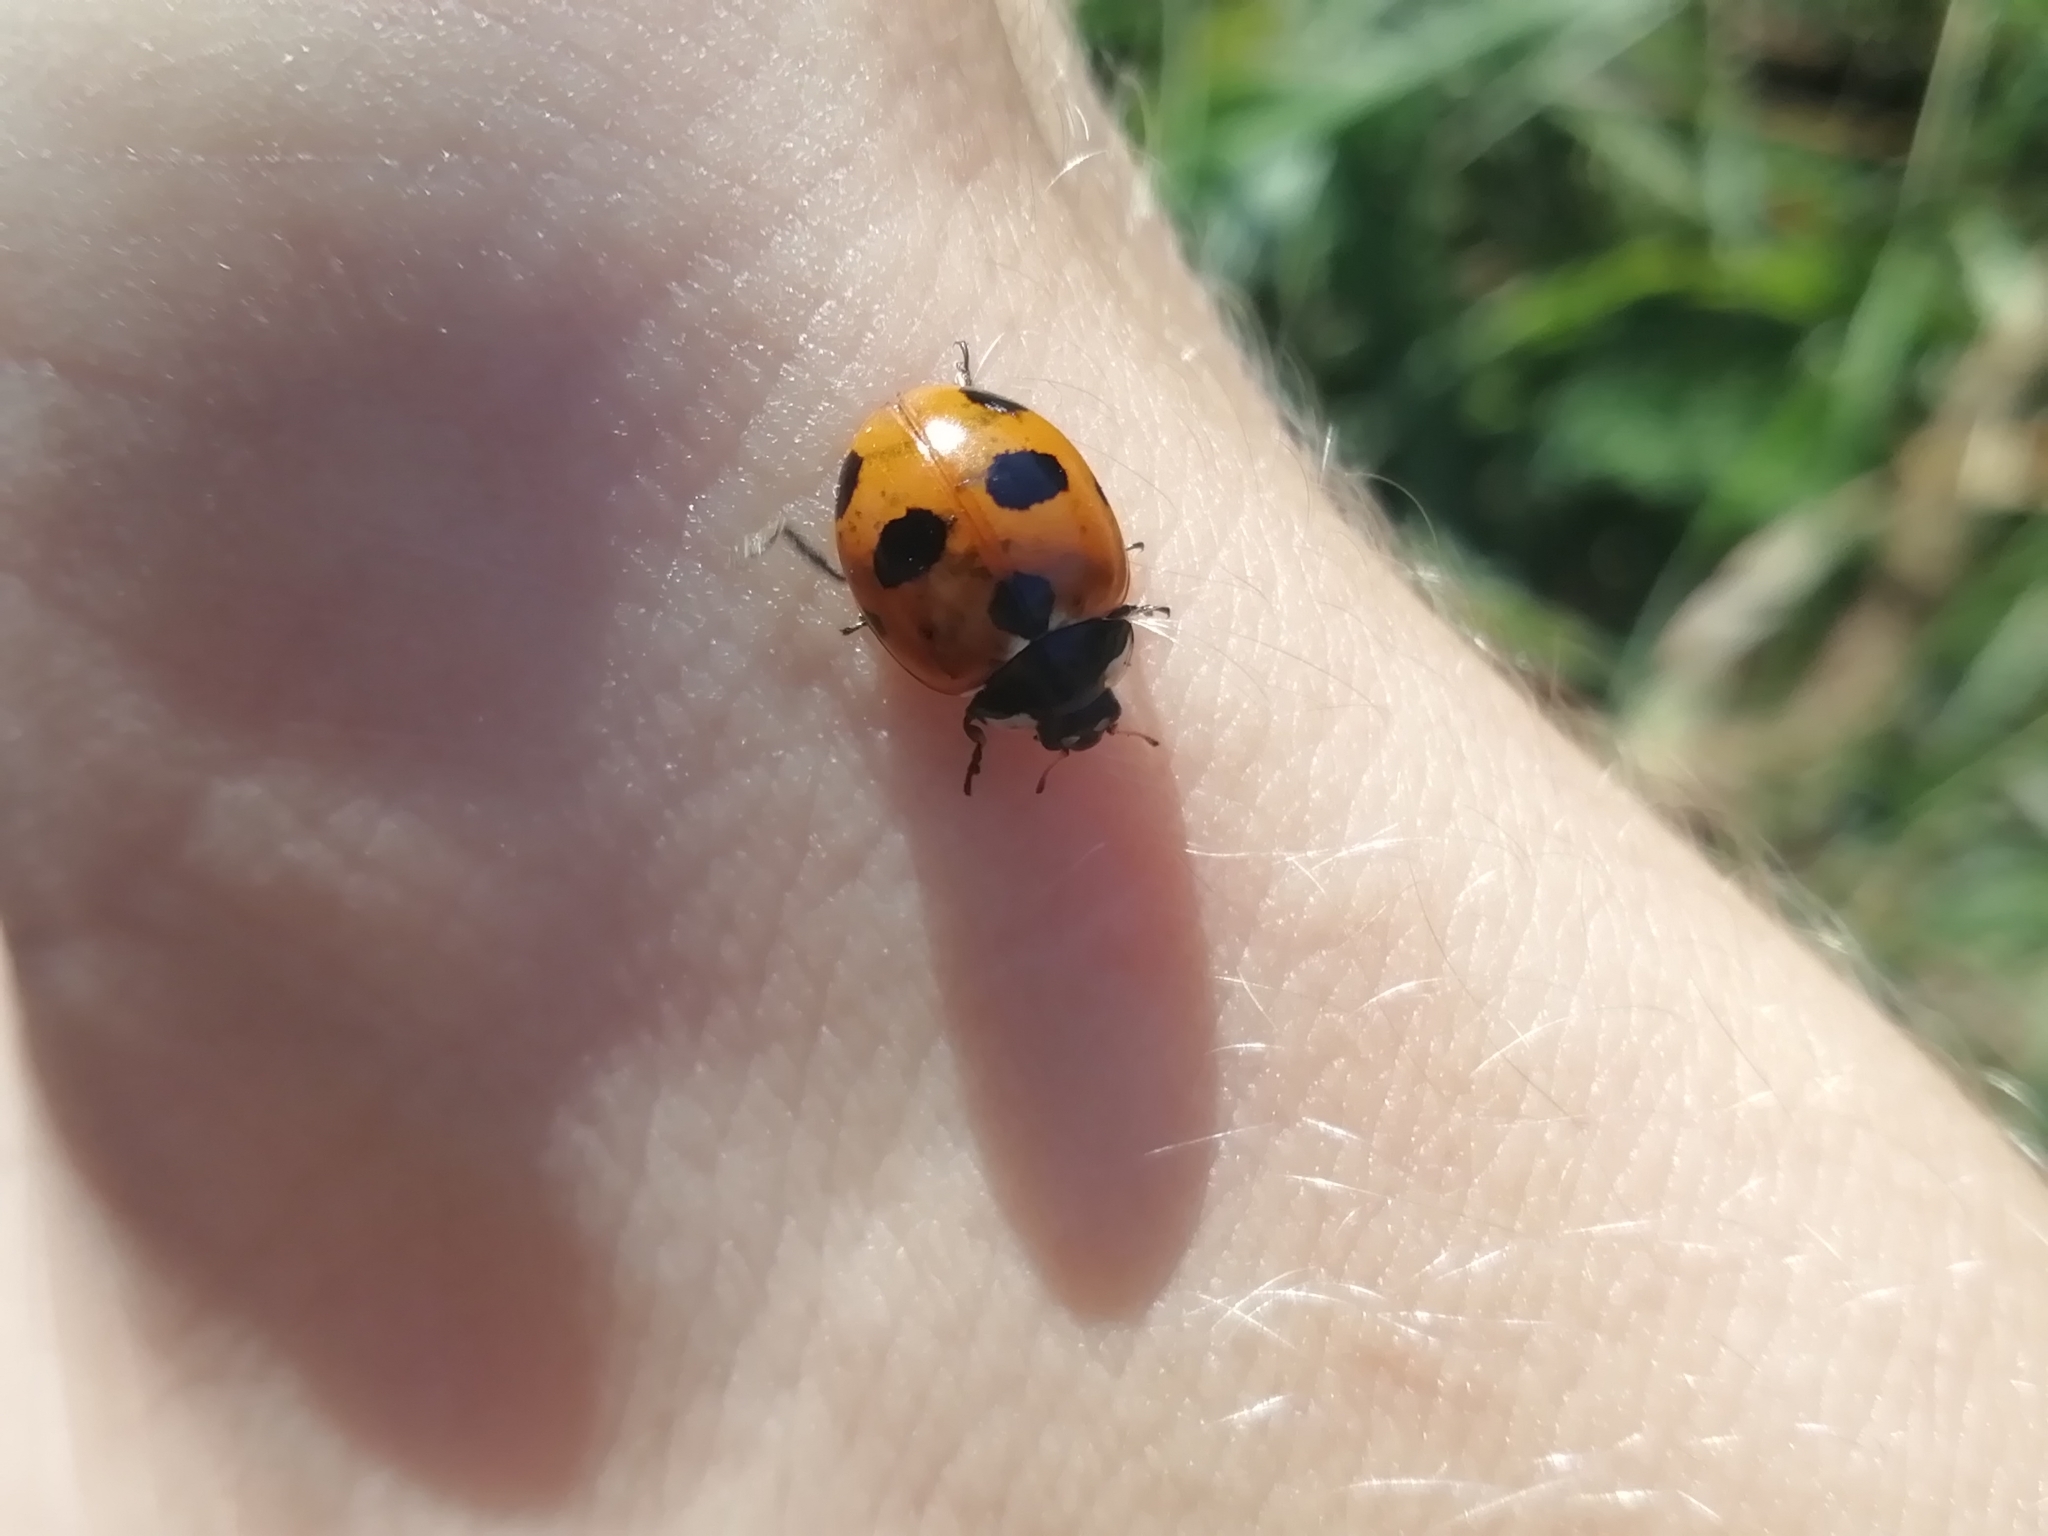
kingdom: Animalia
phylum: Arthropoda
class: Insecta
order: Coleoptera
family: Coccinellidae
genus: Coccinella
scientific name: Coccinella magnifica
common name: Scarce 7-spot ladybird
